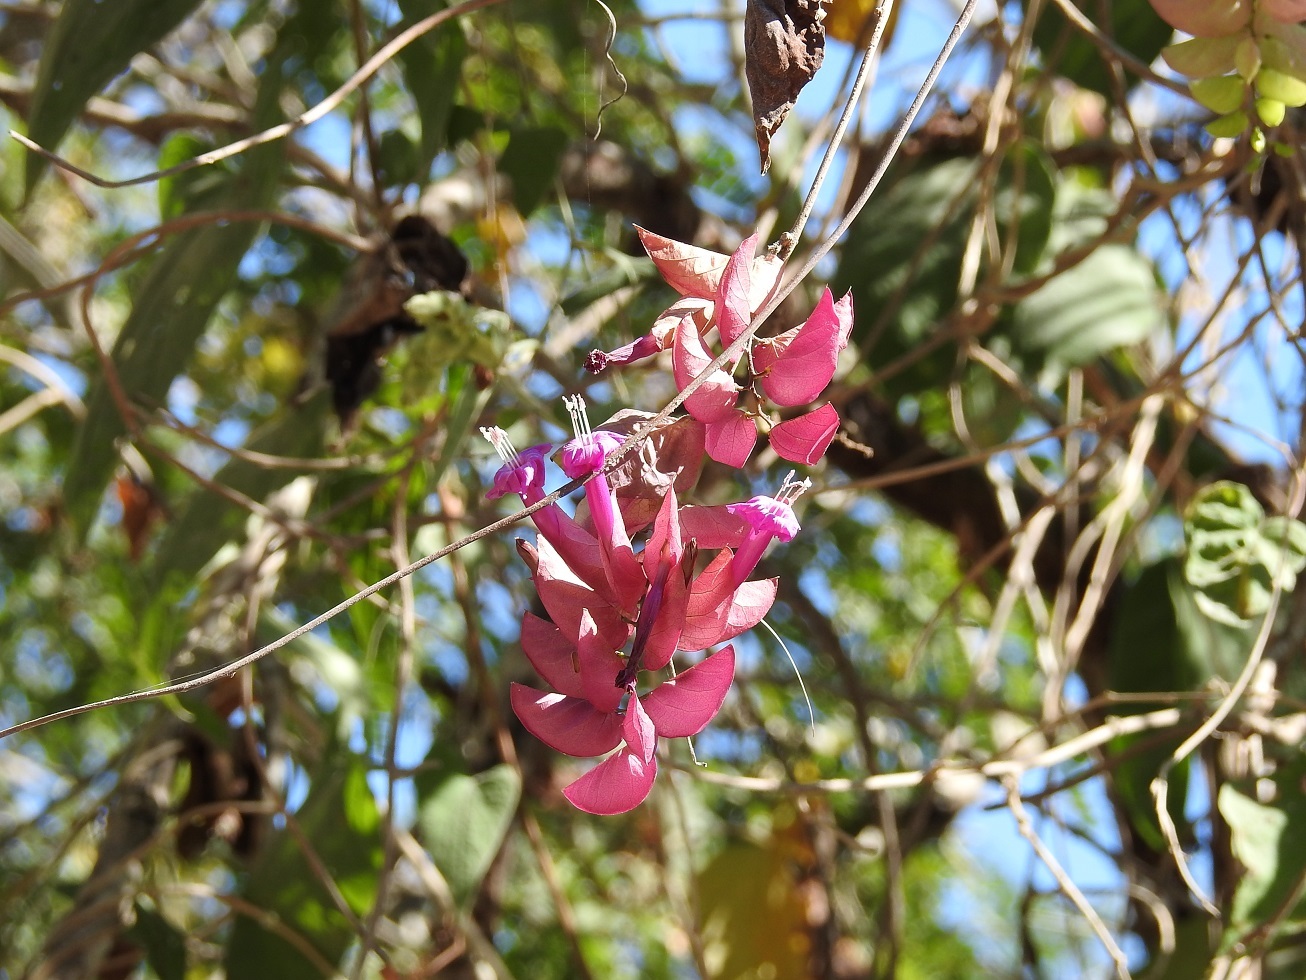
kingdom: Plantae
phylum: Tracheophyta
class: Magnoliopsida
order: Solanales
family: Convolvulaceae
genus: Ipomoea
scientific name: Ipomoea bracteata
